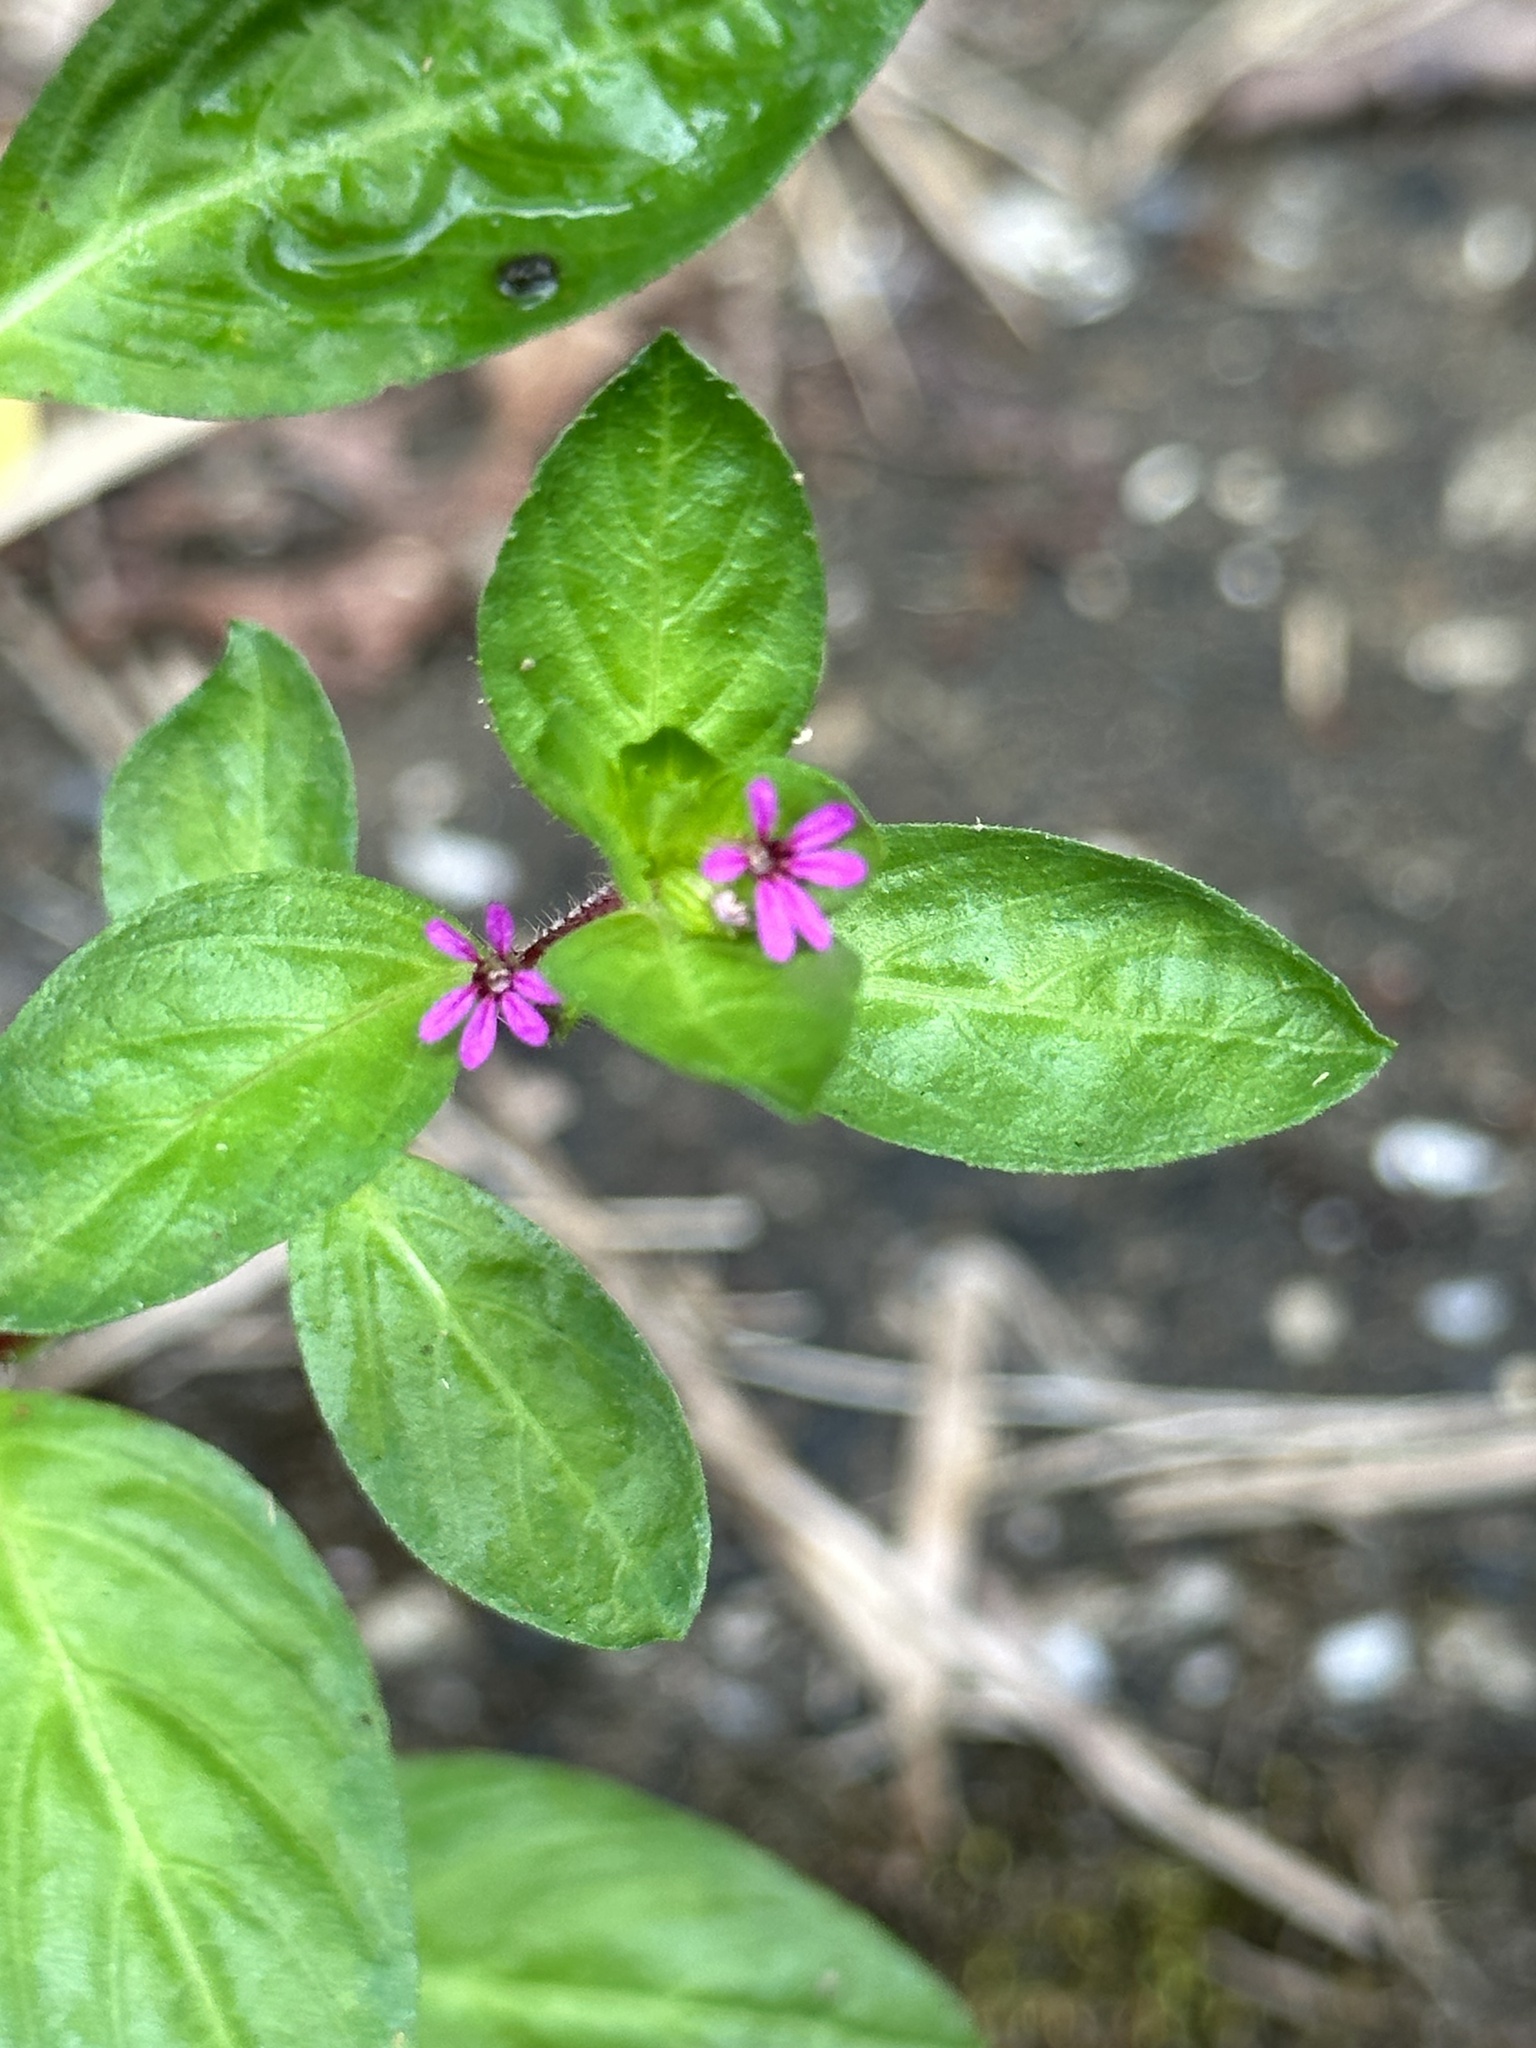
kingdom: Plantae
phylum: Tracheophyta
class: Magnoliopsida
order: Myrtales
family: Lythraceae
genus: Cuphea
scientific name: Cuphea carthagenensis
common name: Colombian waxweed
